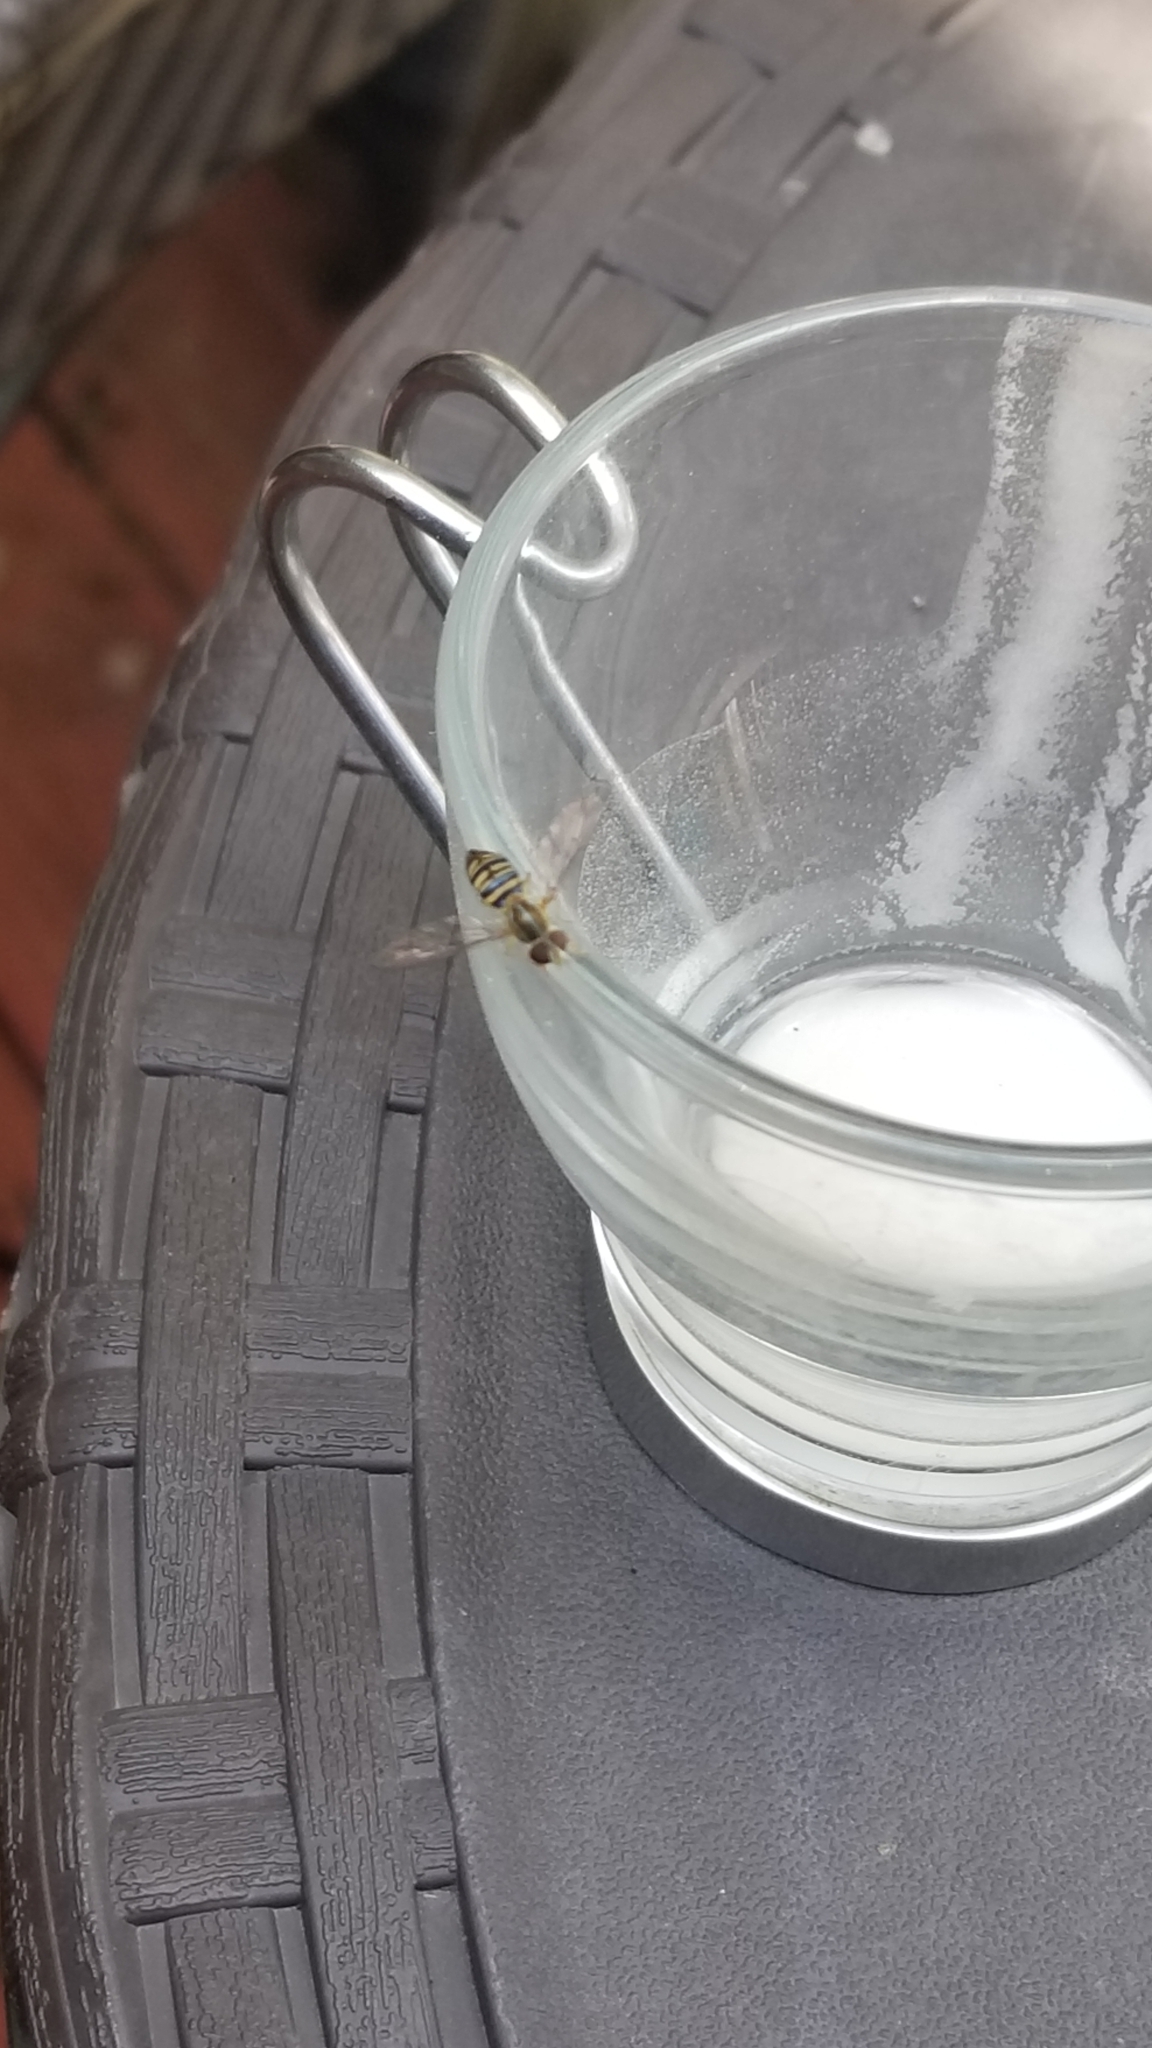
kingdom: Animalia
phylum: Arthropoda
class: Insecta
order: Diptera
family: Syrphidae
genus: Toxomerus
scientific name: Toxomerus politus
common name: Maize calligrapher
